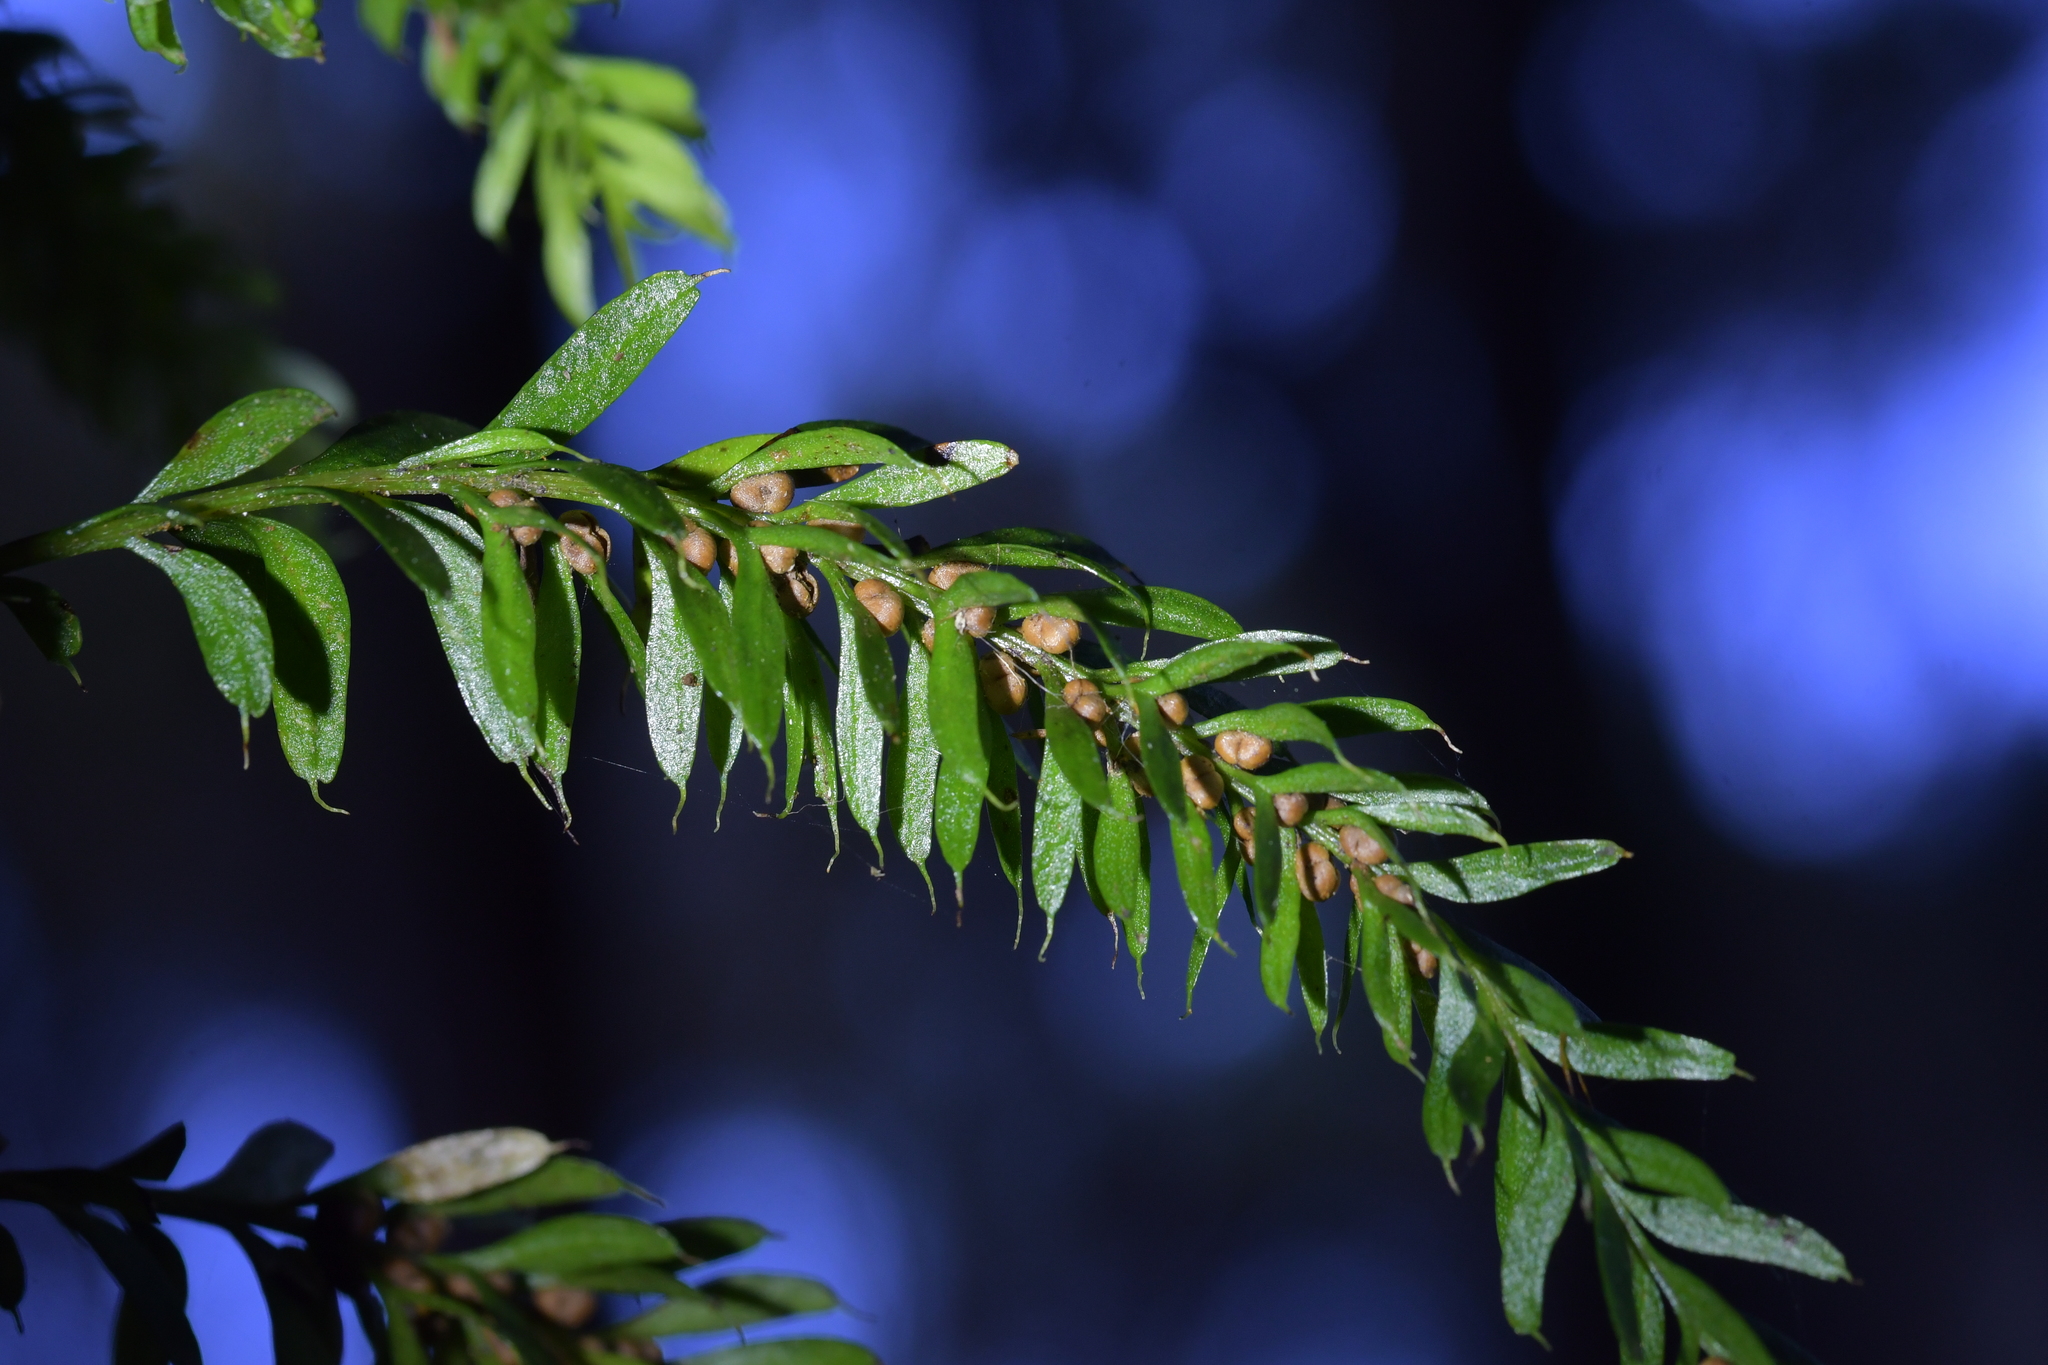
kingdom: Plantae
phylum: Tracheophyta
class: Polypodiopsida
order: Psilotales
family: Psilotaceae
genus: Tmesipteris
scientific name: Tmesipteris sigmatifolia
